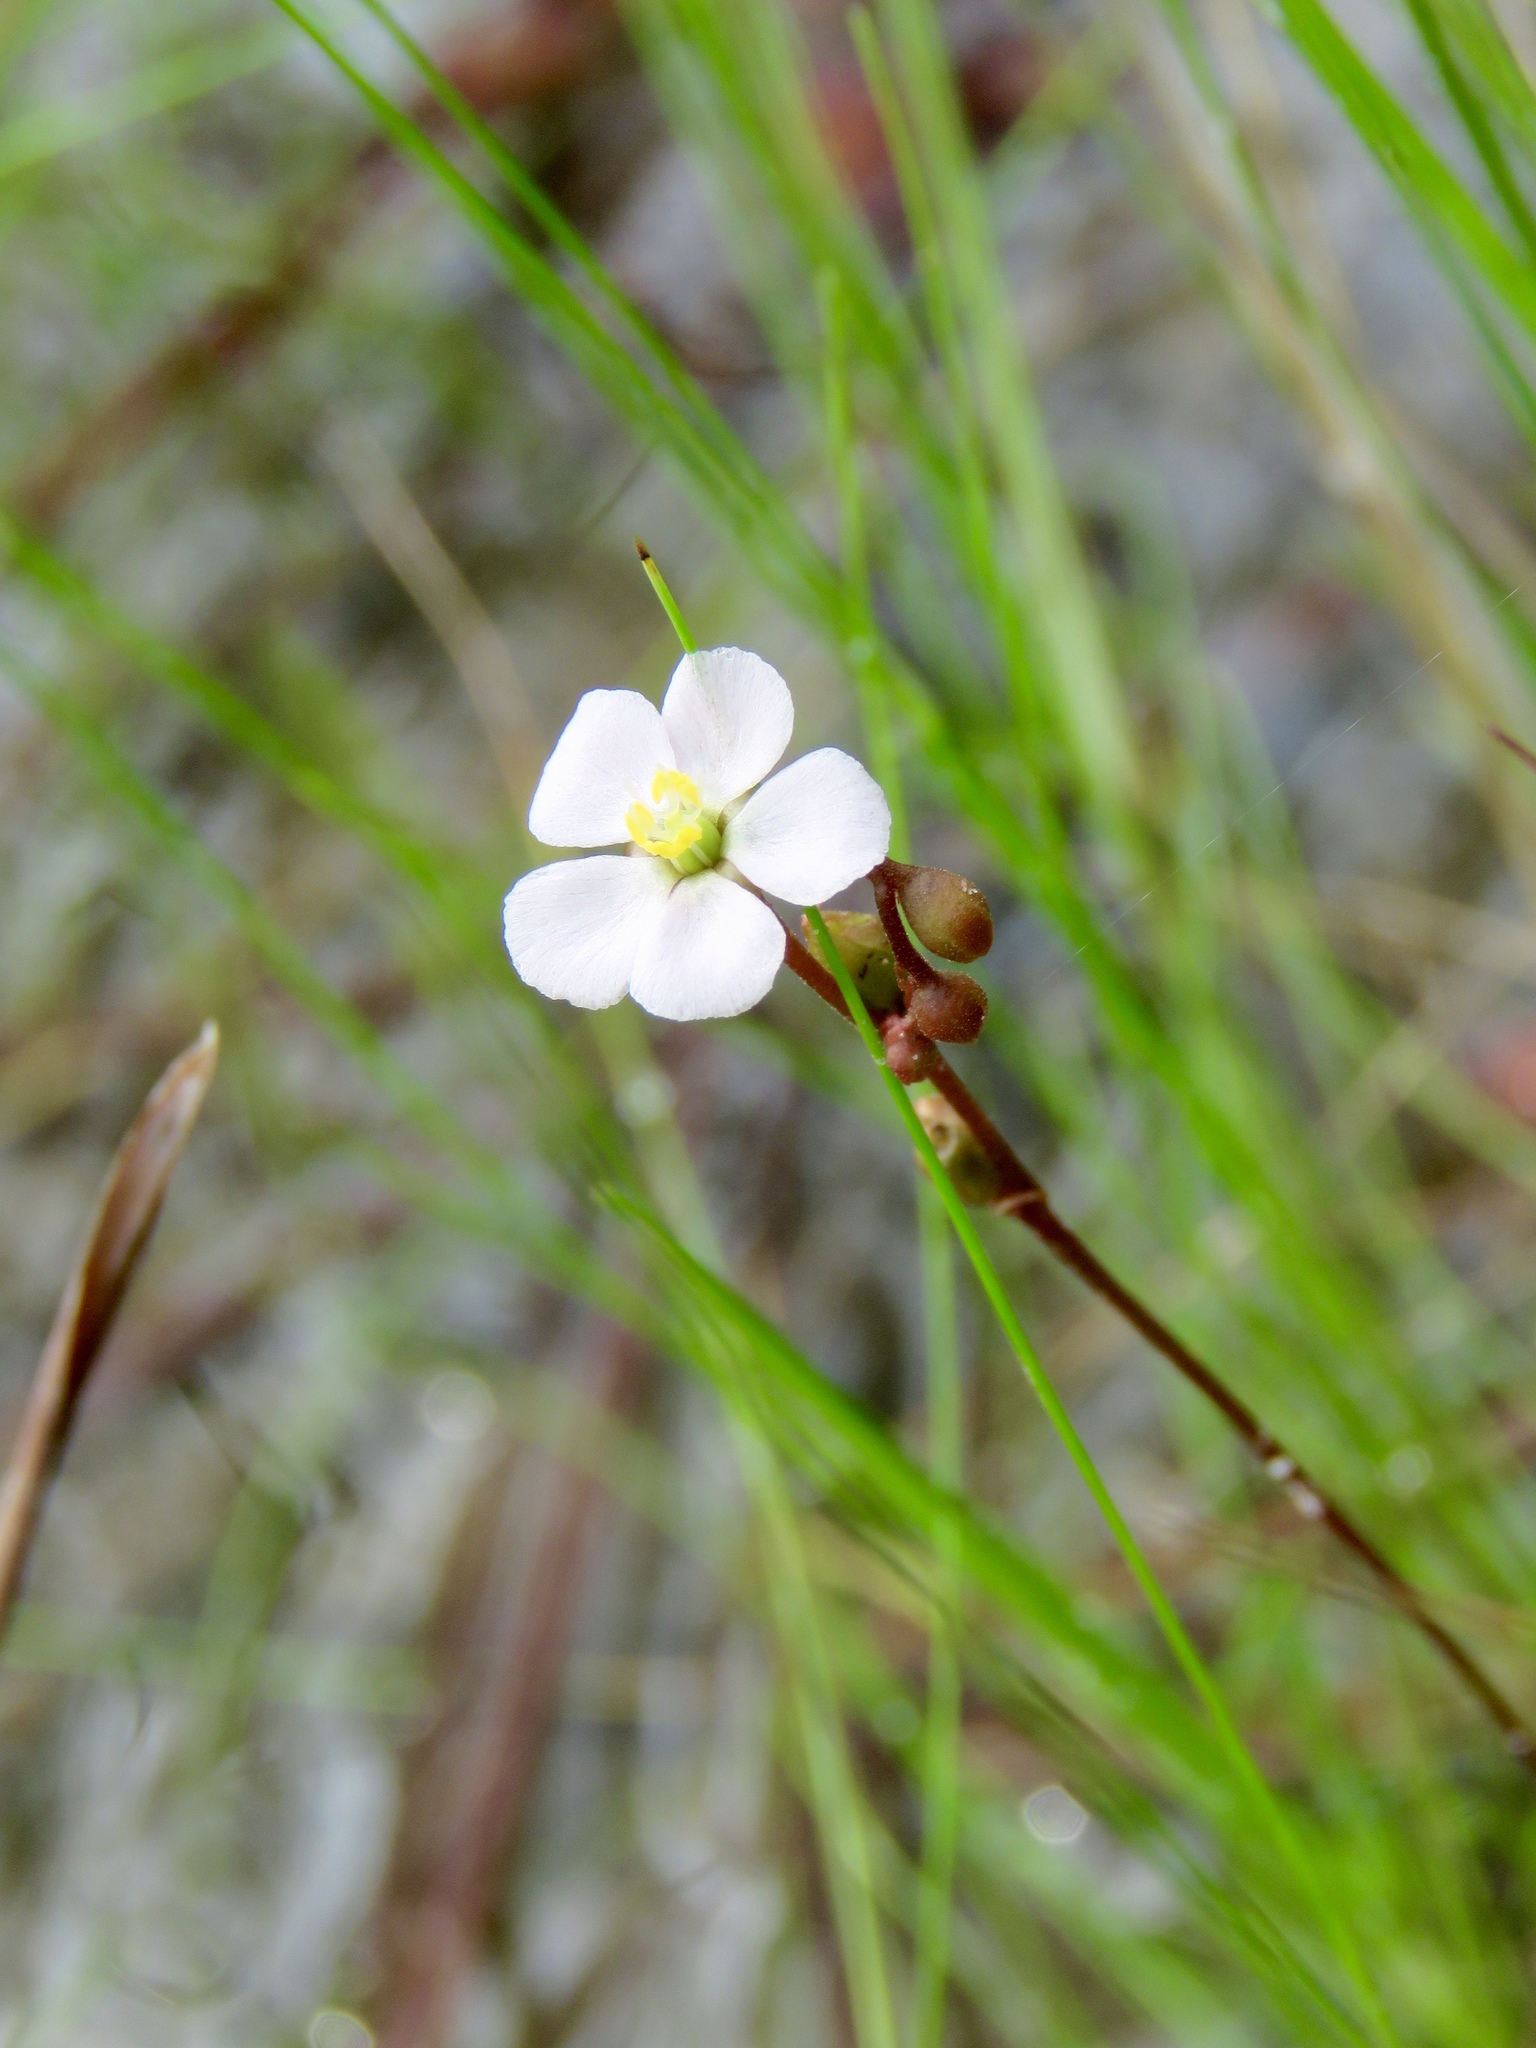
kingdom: Plantae
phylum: Tracheophyta
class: Magnoliopsida
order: Caryophyllales
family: Droseraceae
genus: Drosera
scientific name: Drosera capillaris
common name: Pink sundew
